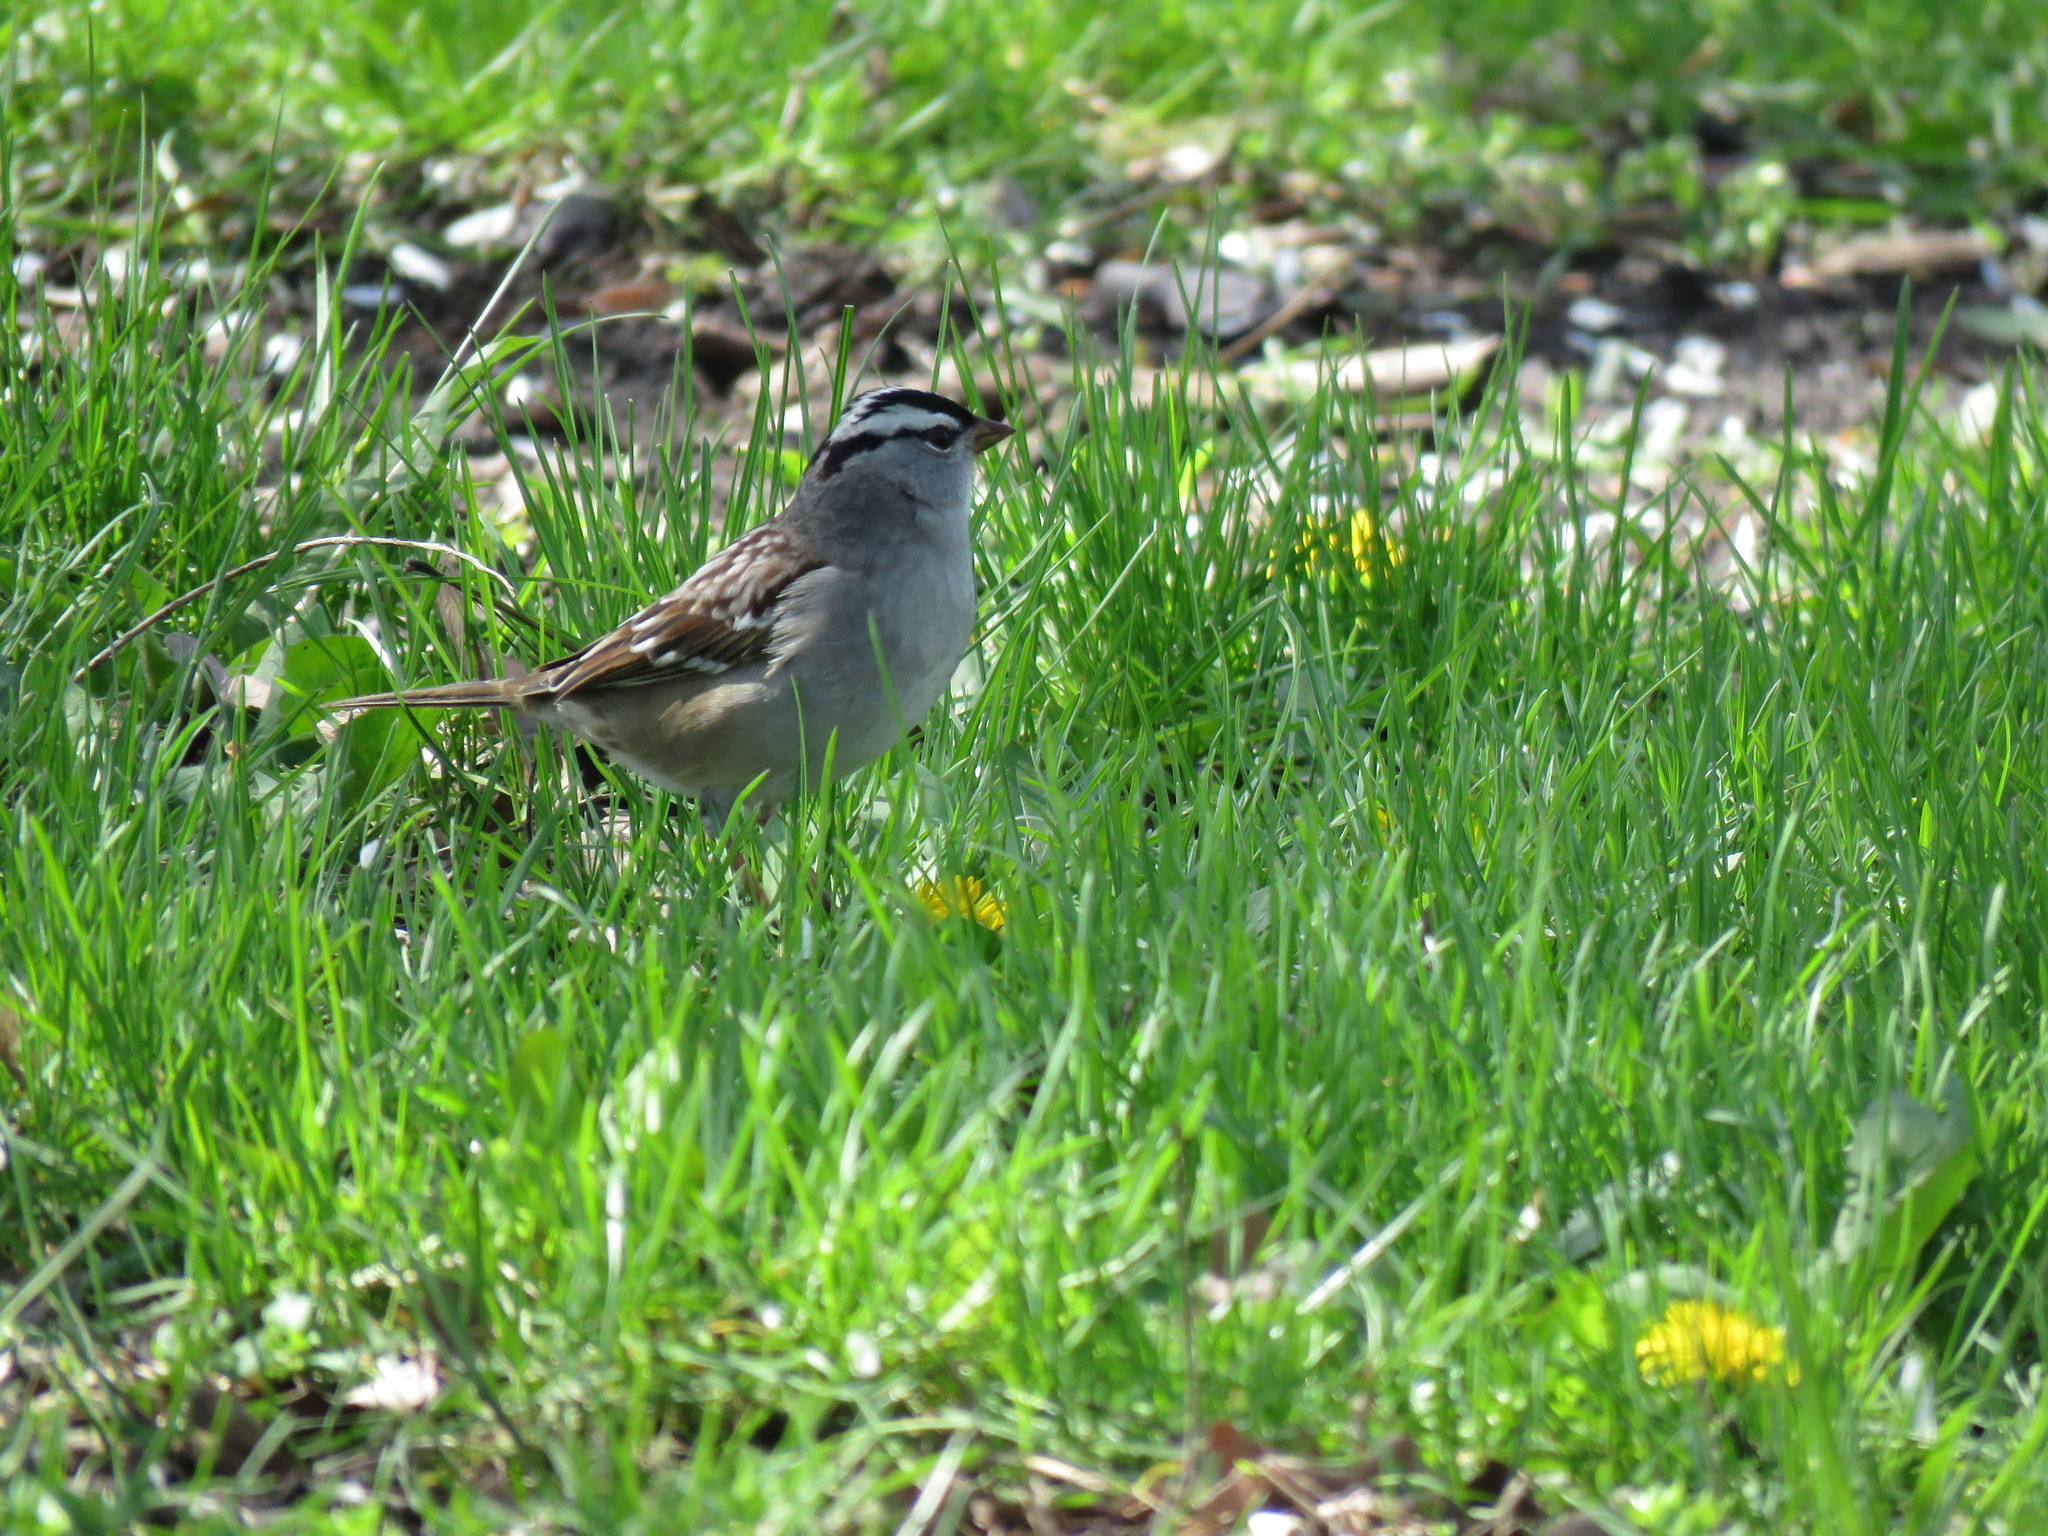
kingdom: Animalia
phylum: Chordata
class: Aves
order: Passeriformes
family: Passerellidae
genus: Zonotrichia
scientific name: Zonotrichia leucophrys
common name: White-crowned sparrow
